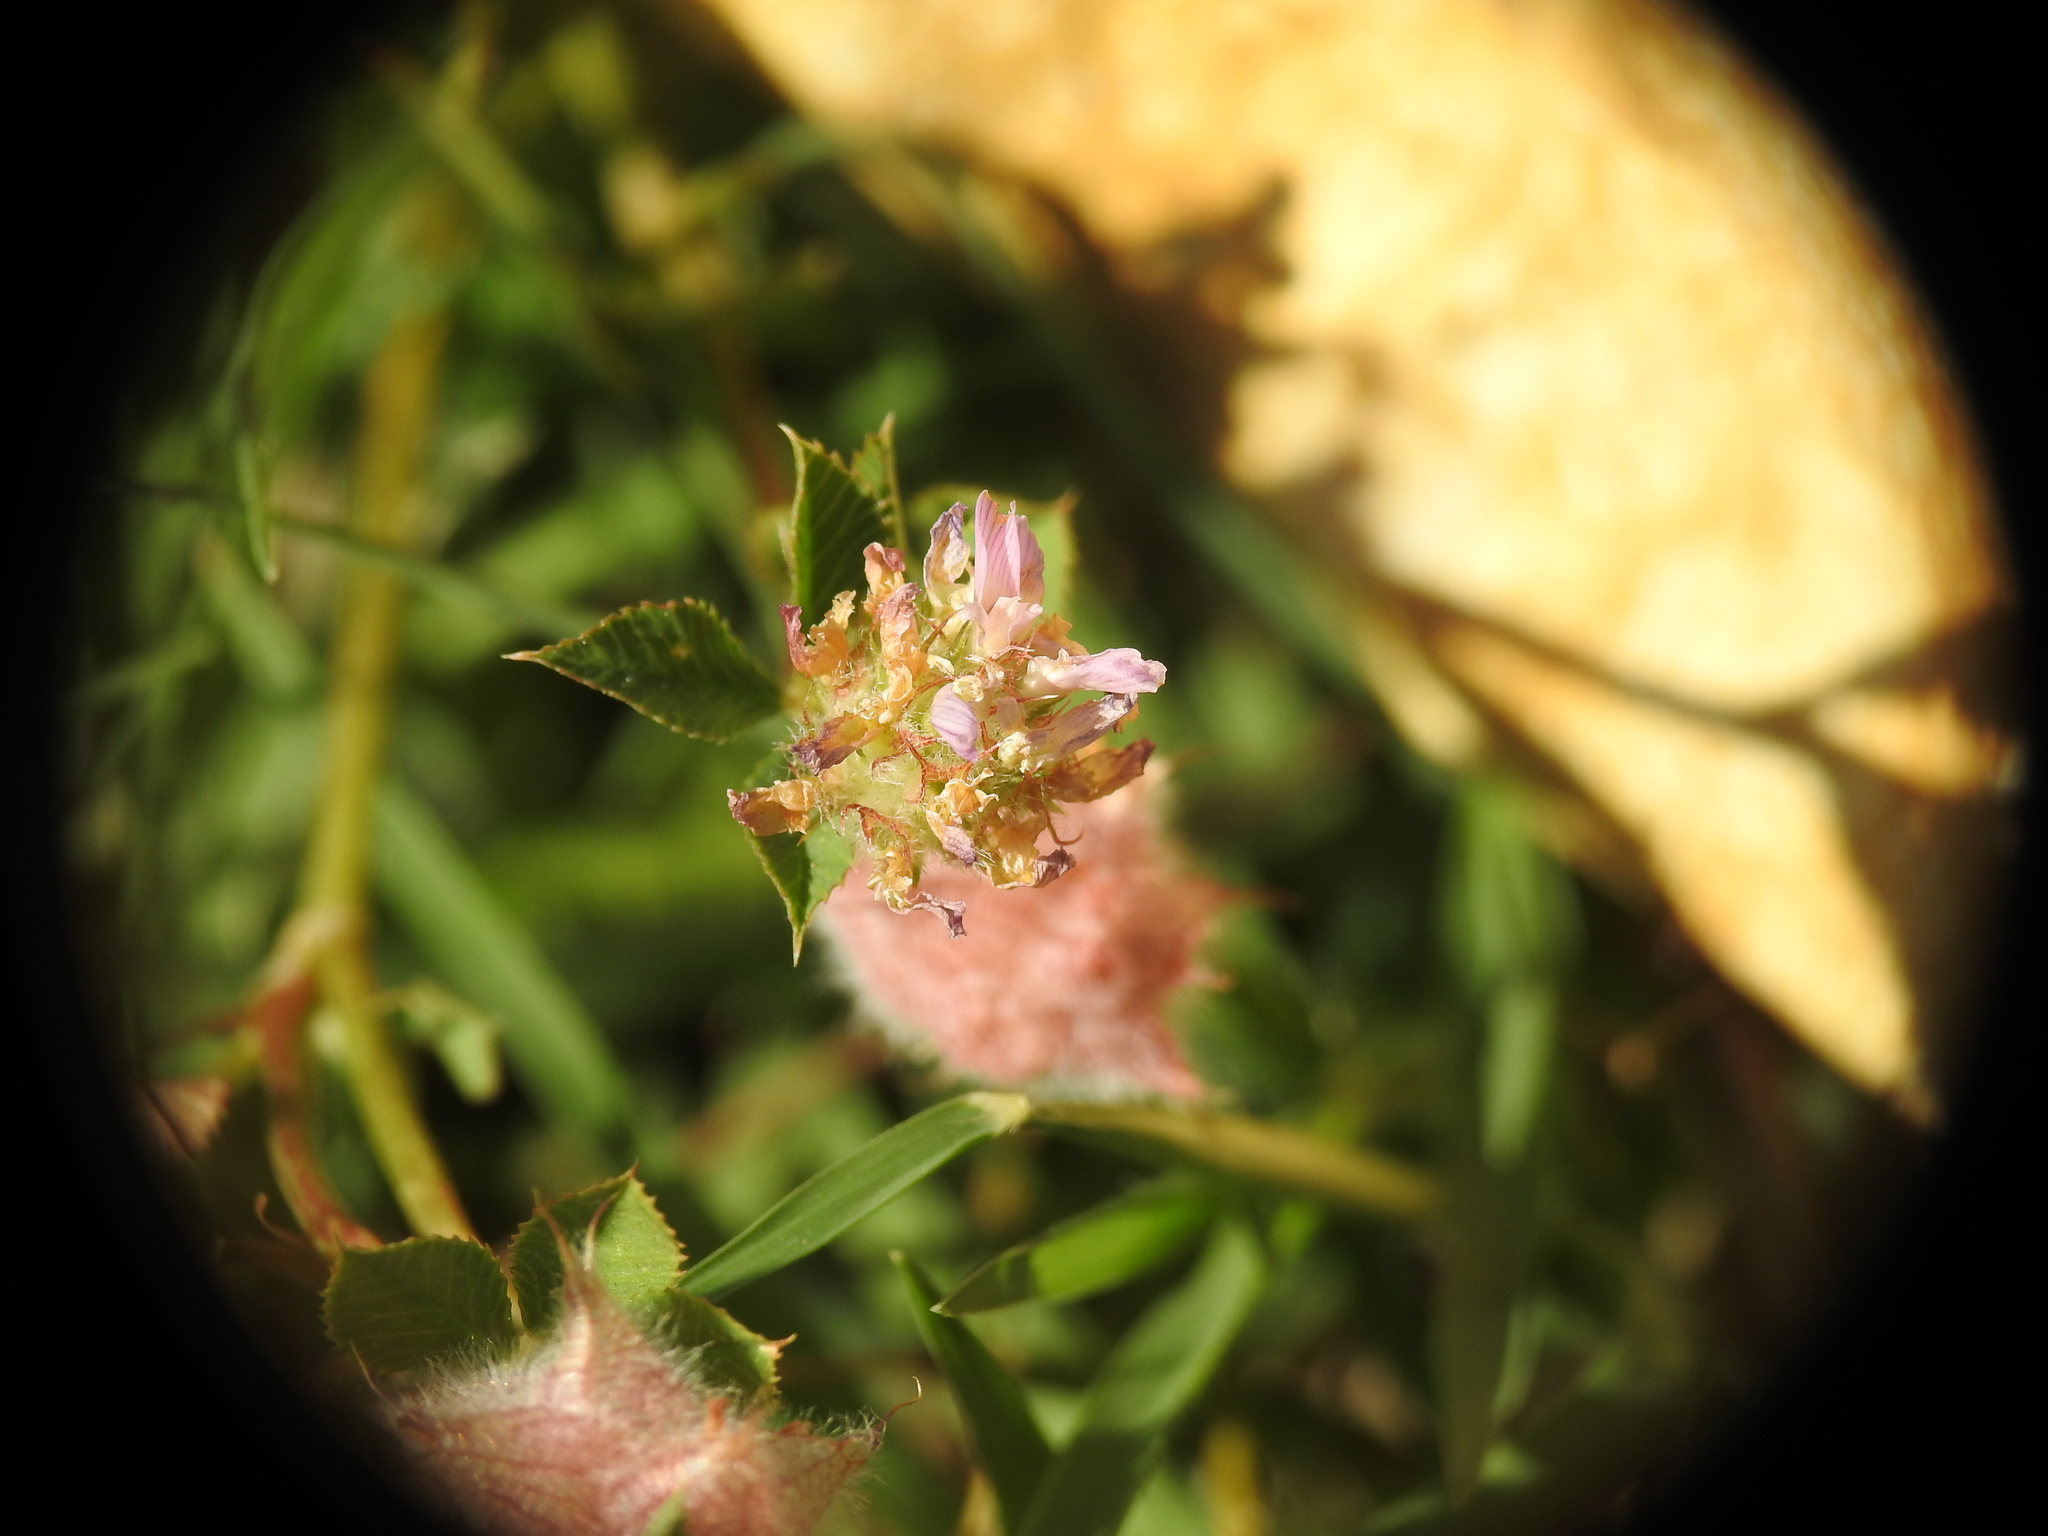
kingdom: Plantae
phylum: Tracheophyta
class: Magnoliopsida
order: Fabales
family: Fabaceae
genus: Trifolium
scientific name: Trifolium resupinatum
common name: Reversed clover
